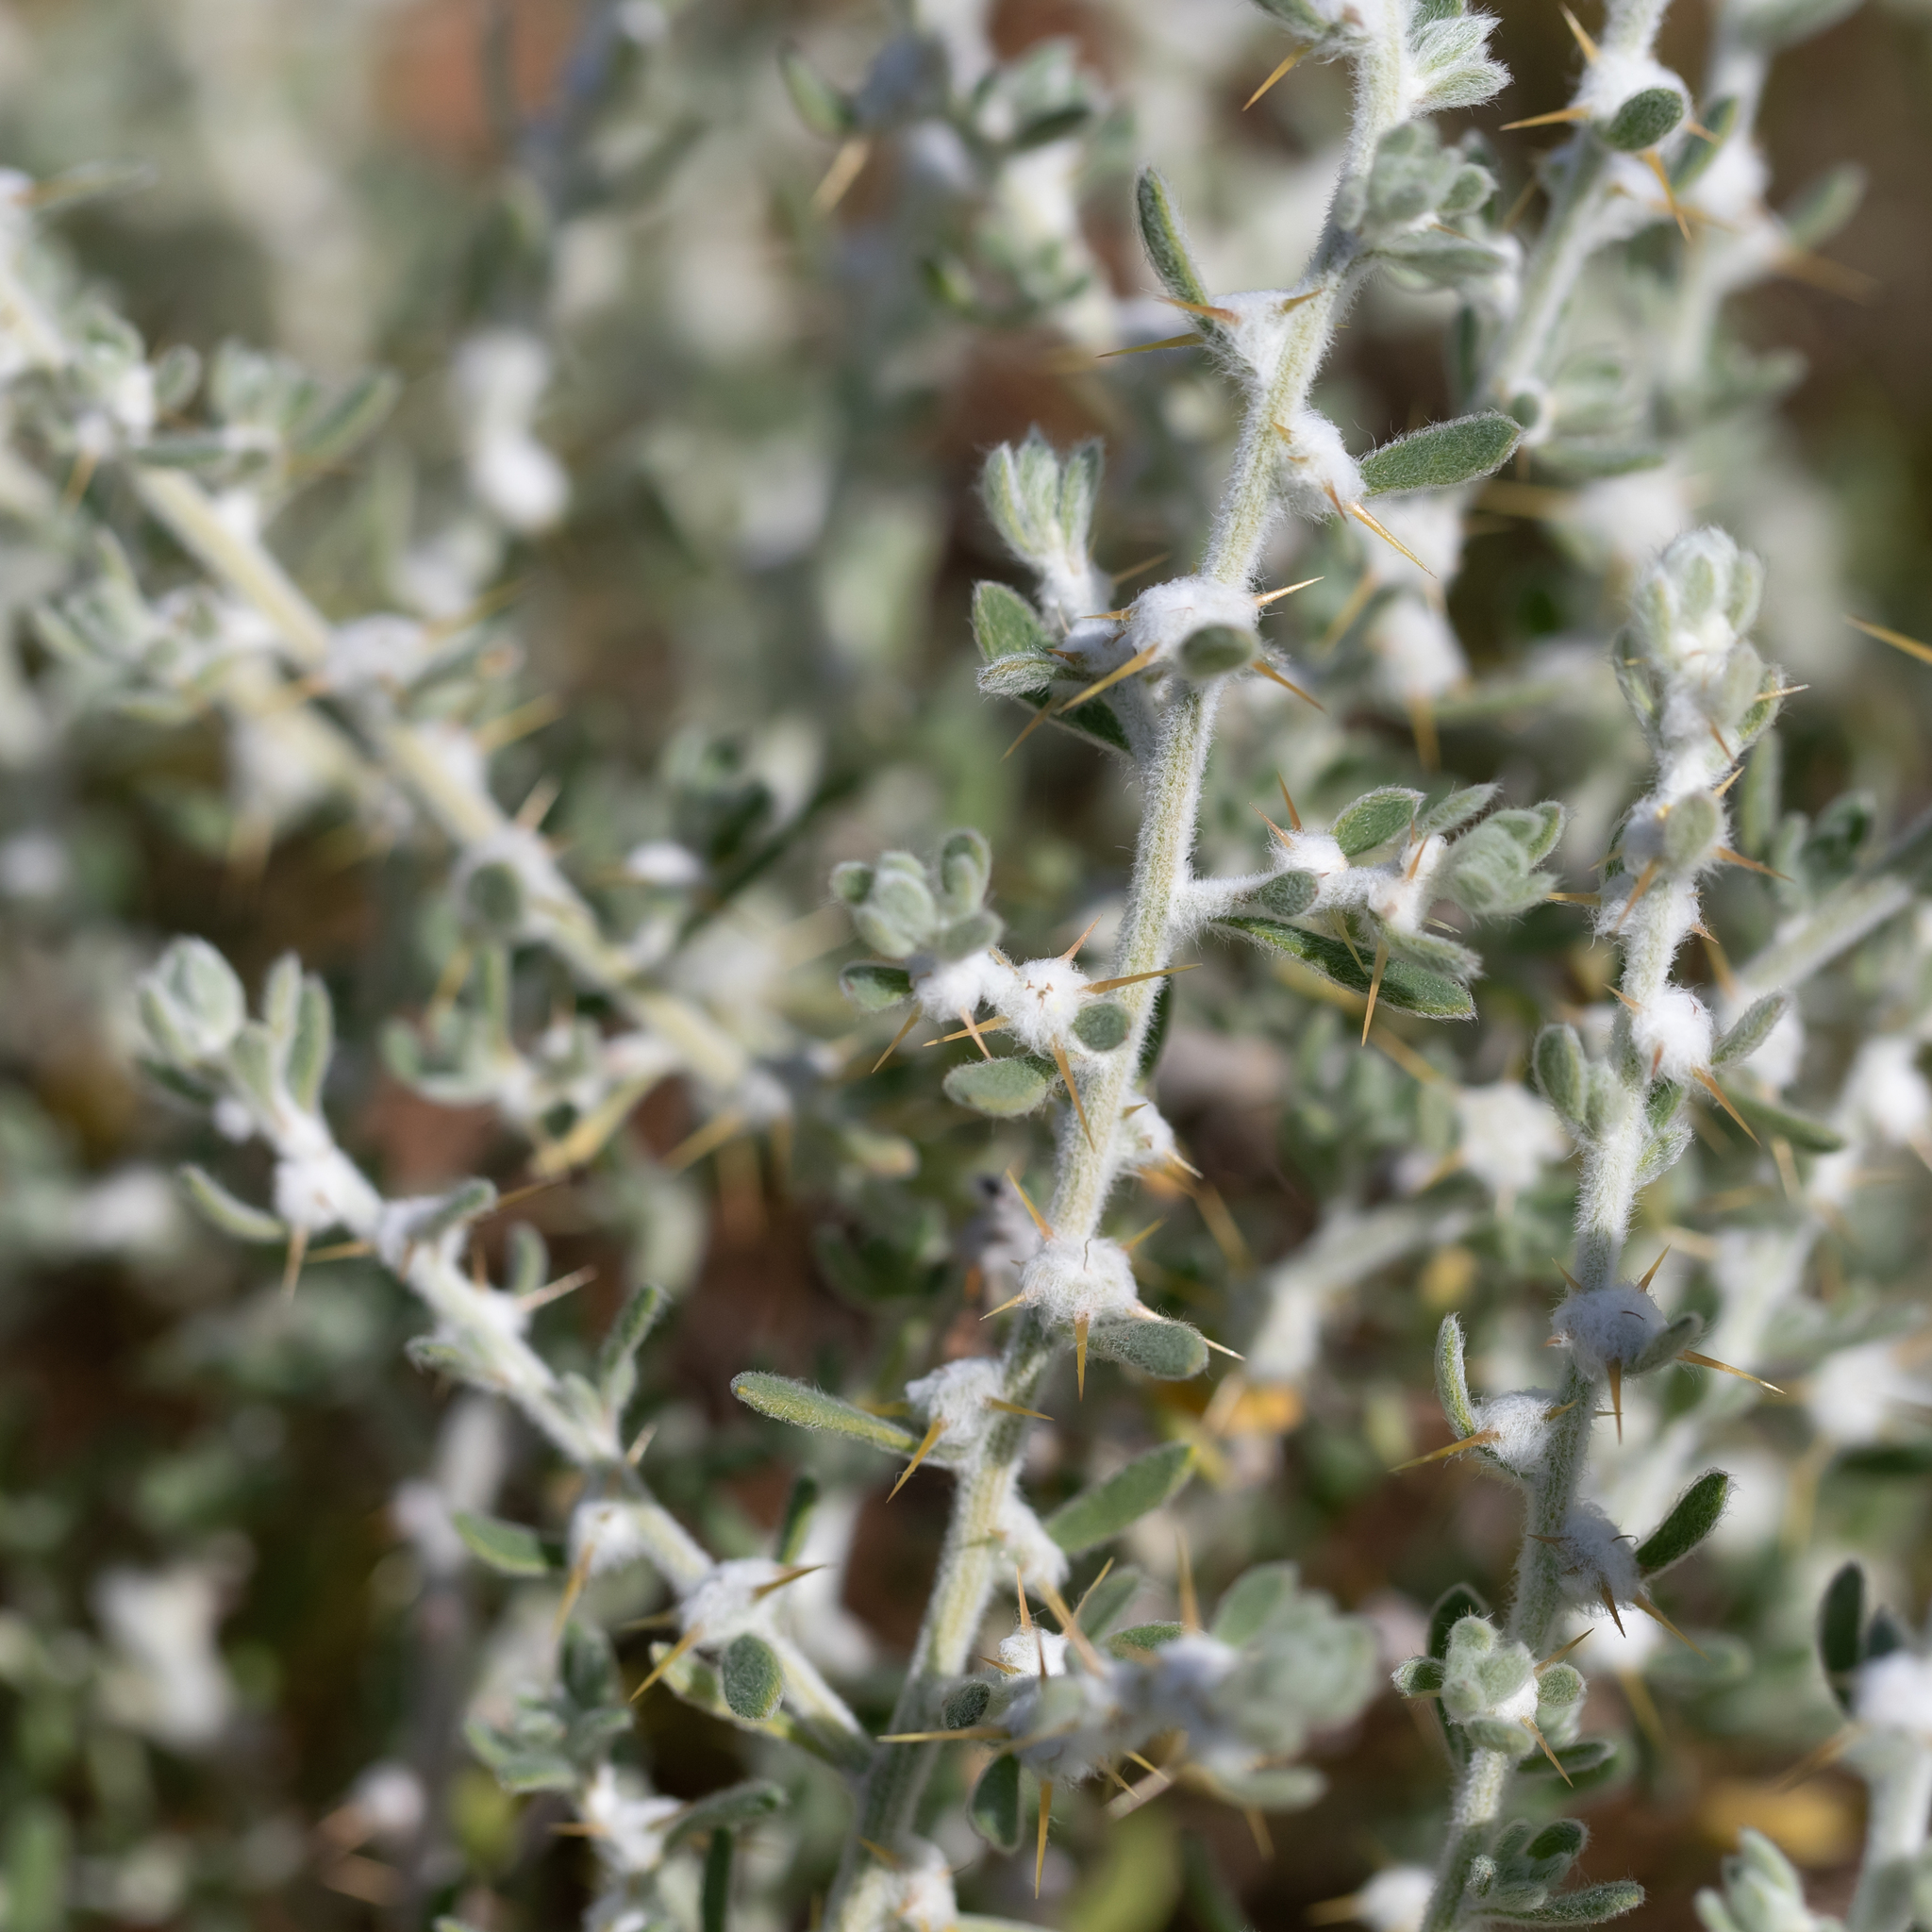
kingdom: Plantae
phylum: Tracheophyta
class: Magnoliopsida
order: Caryophyllales
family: Amaranthaceae
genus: Sclerolaena
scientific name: Sclerolaena birchii
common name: Galvanized bur
